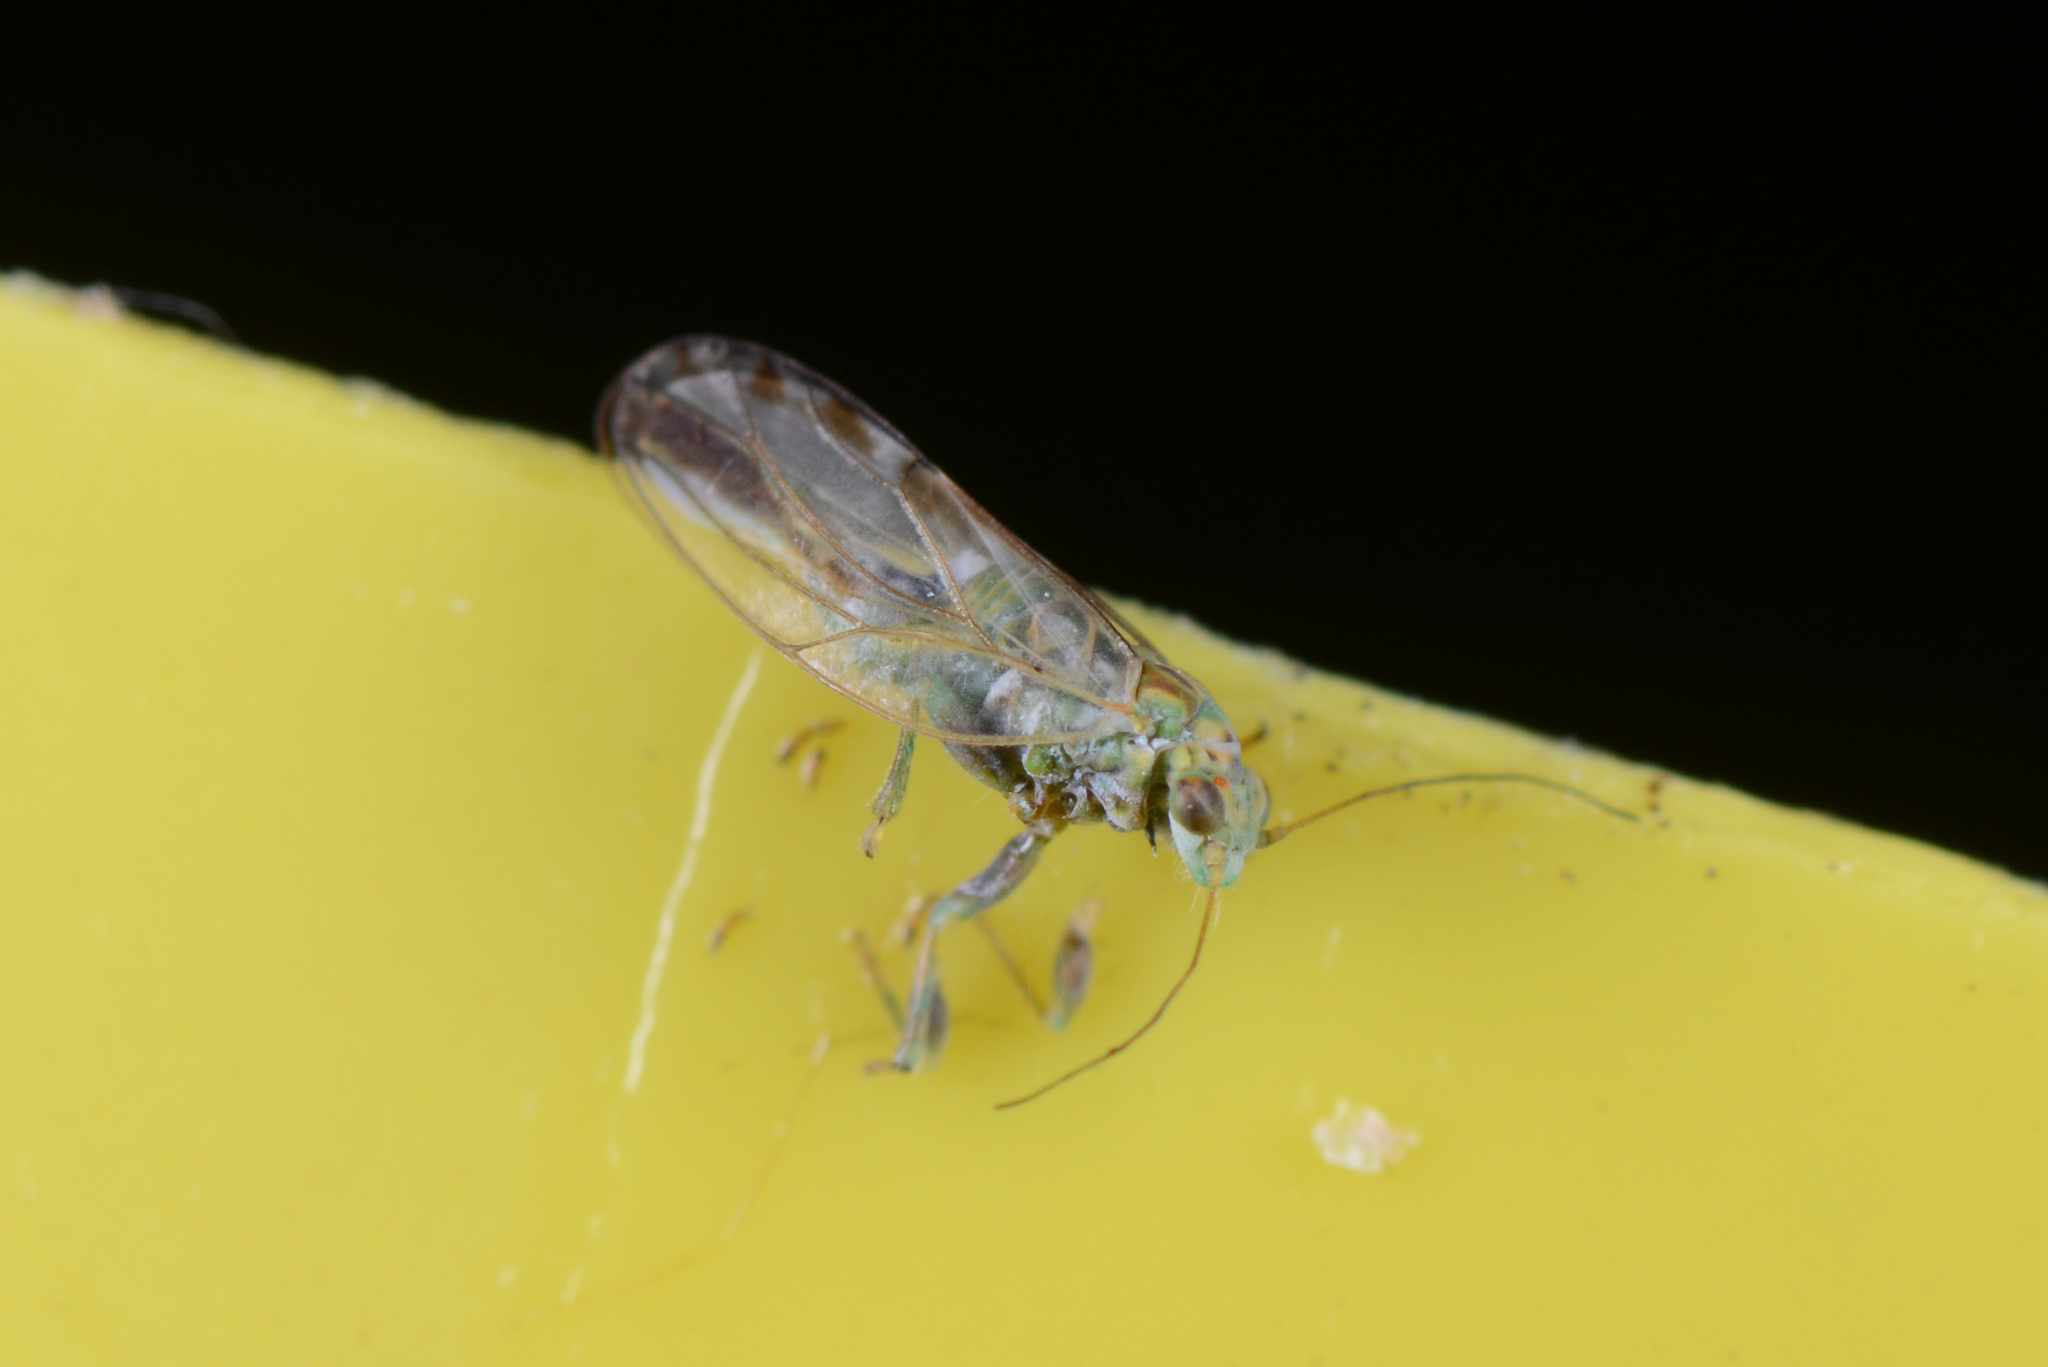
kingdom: Animalia
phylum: Arthropoda
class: Insecta
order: Hemiptera
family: Psyllidae
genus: Arytaina
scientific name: Arytaina genistae
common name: Psyllid
